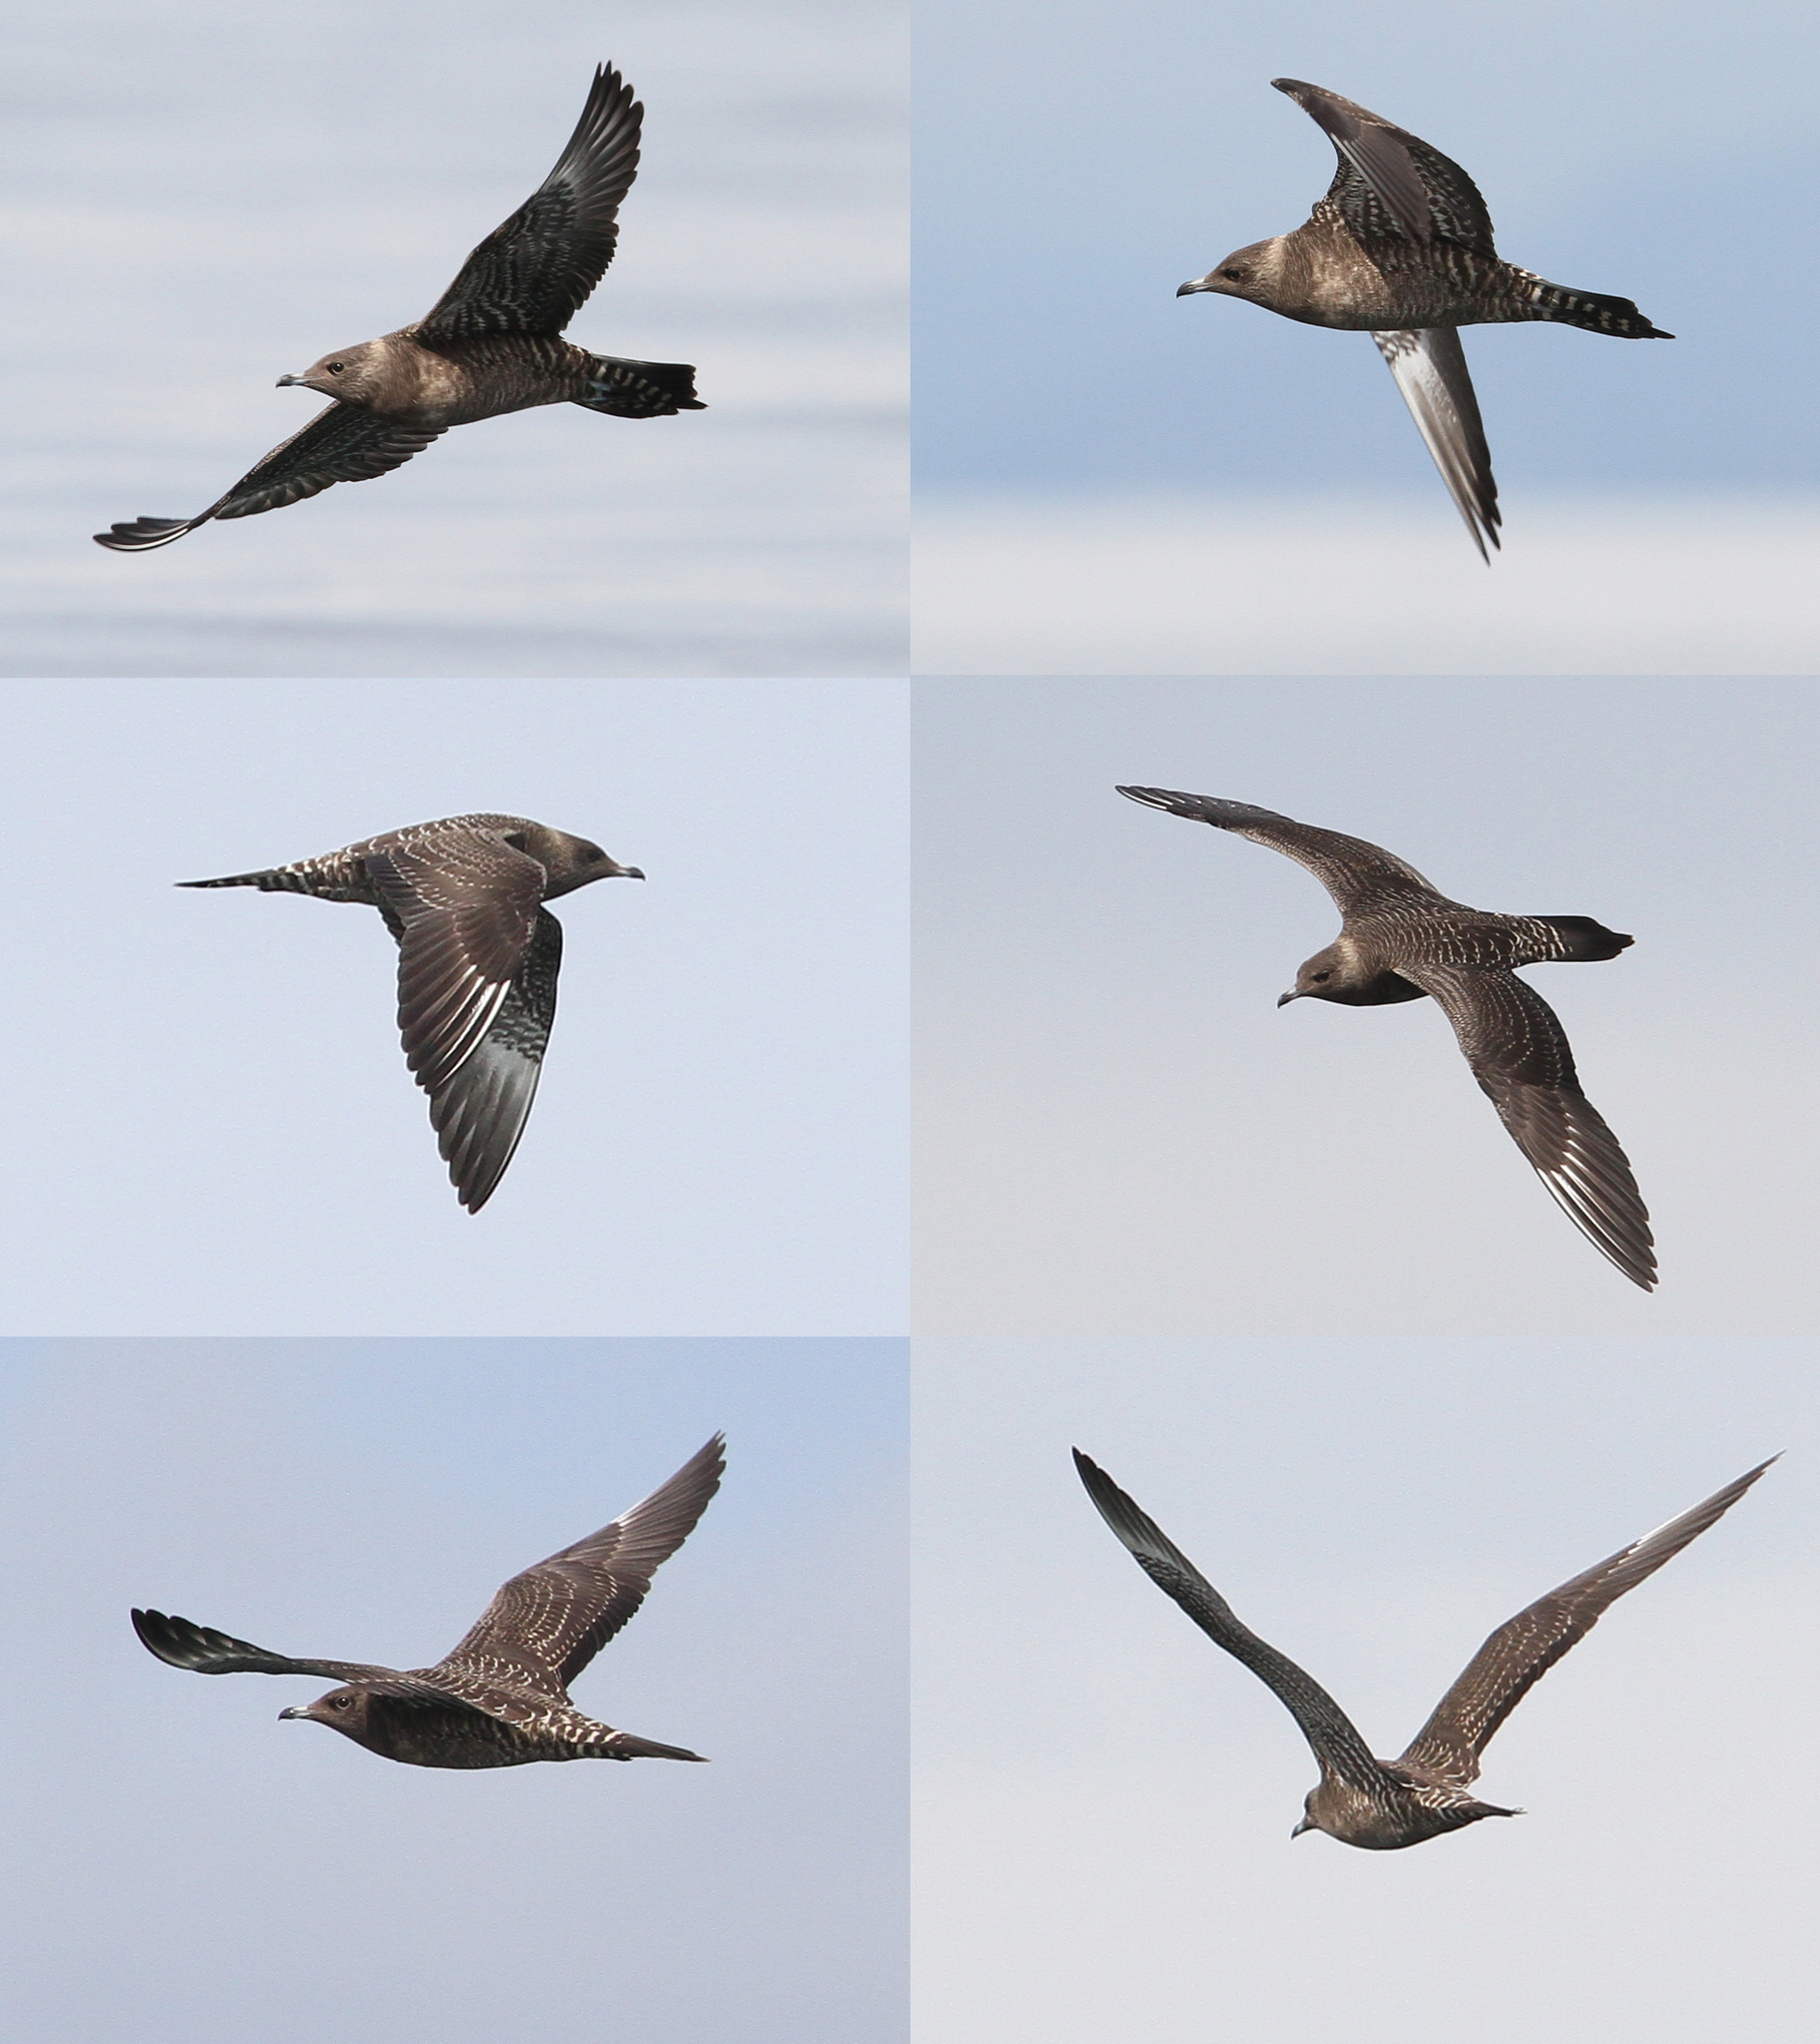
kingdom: Animalia
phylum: Chordata
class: Aves
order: Charadriiformes
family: Stercorariidae
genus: Stercorarius
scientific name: Stercorarius longicaudus
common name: Long-tailed jaeger
